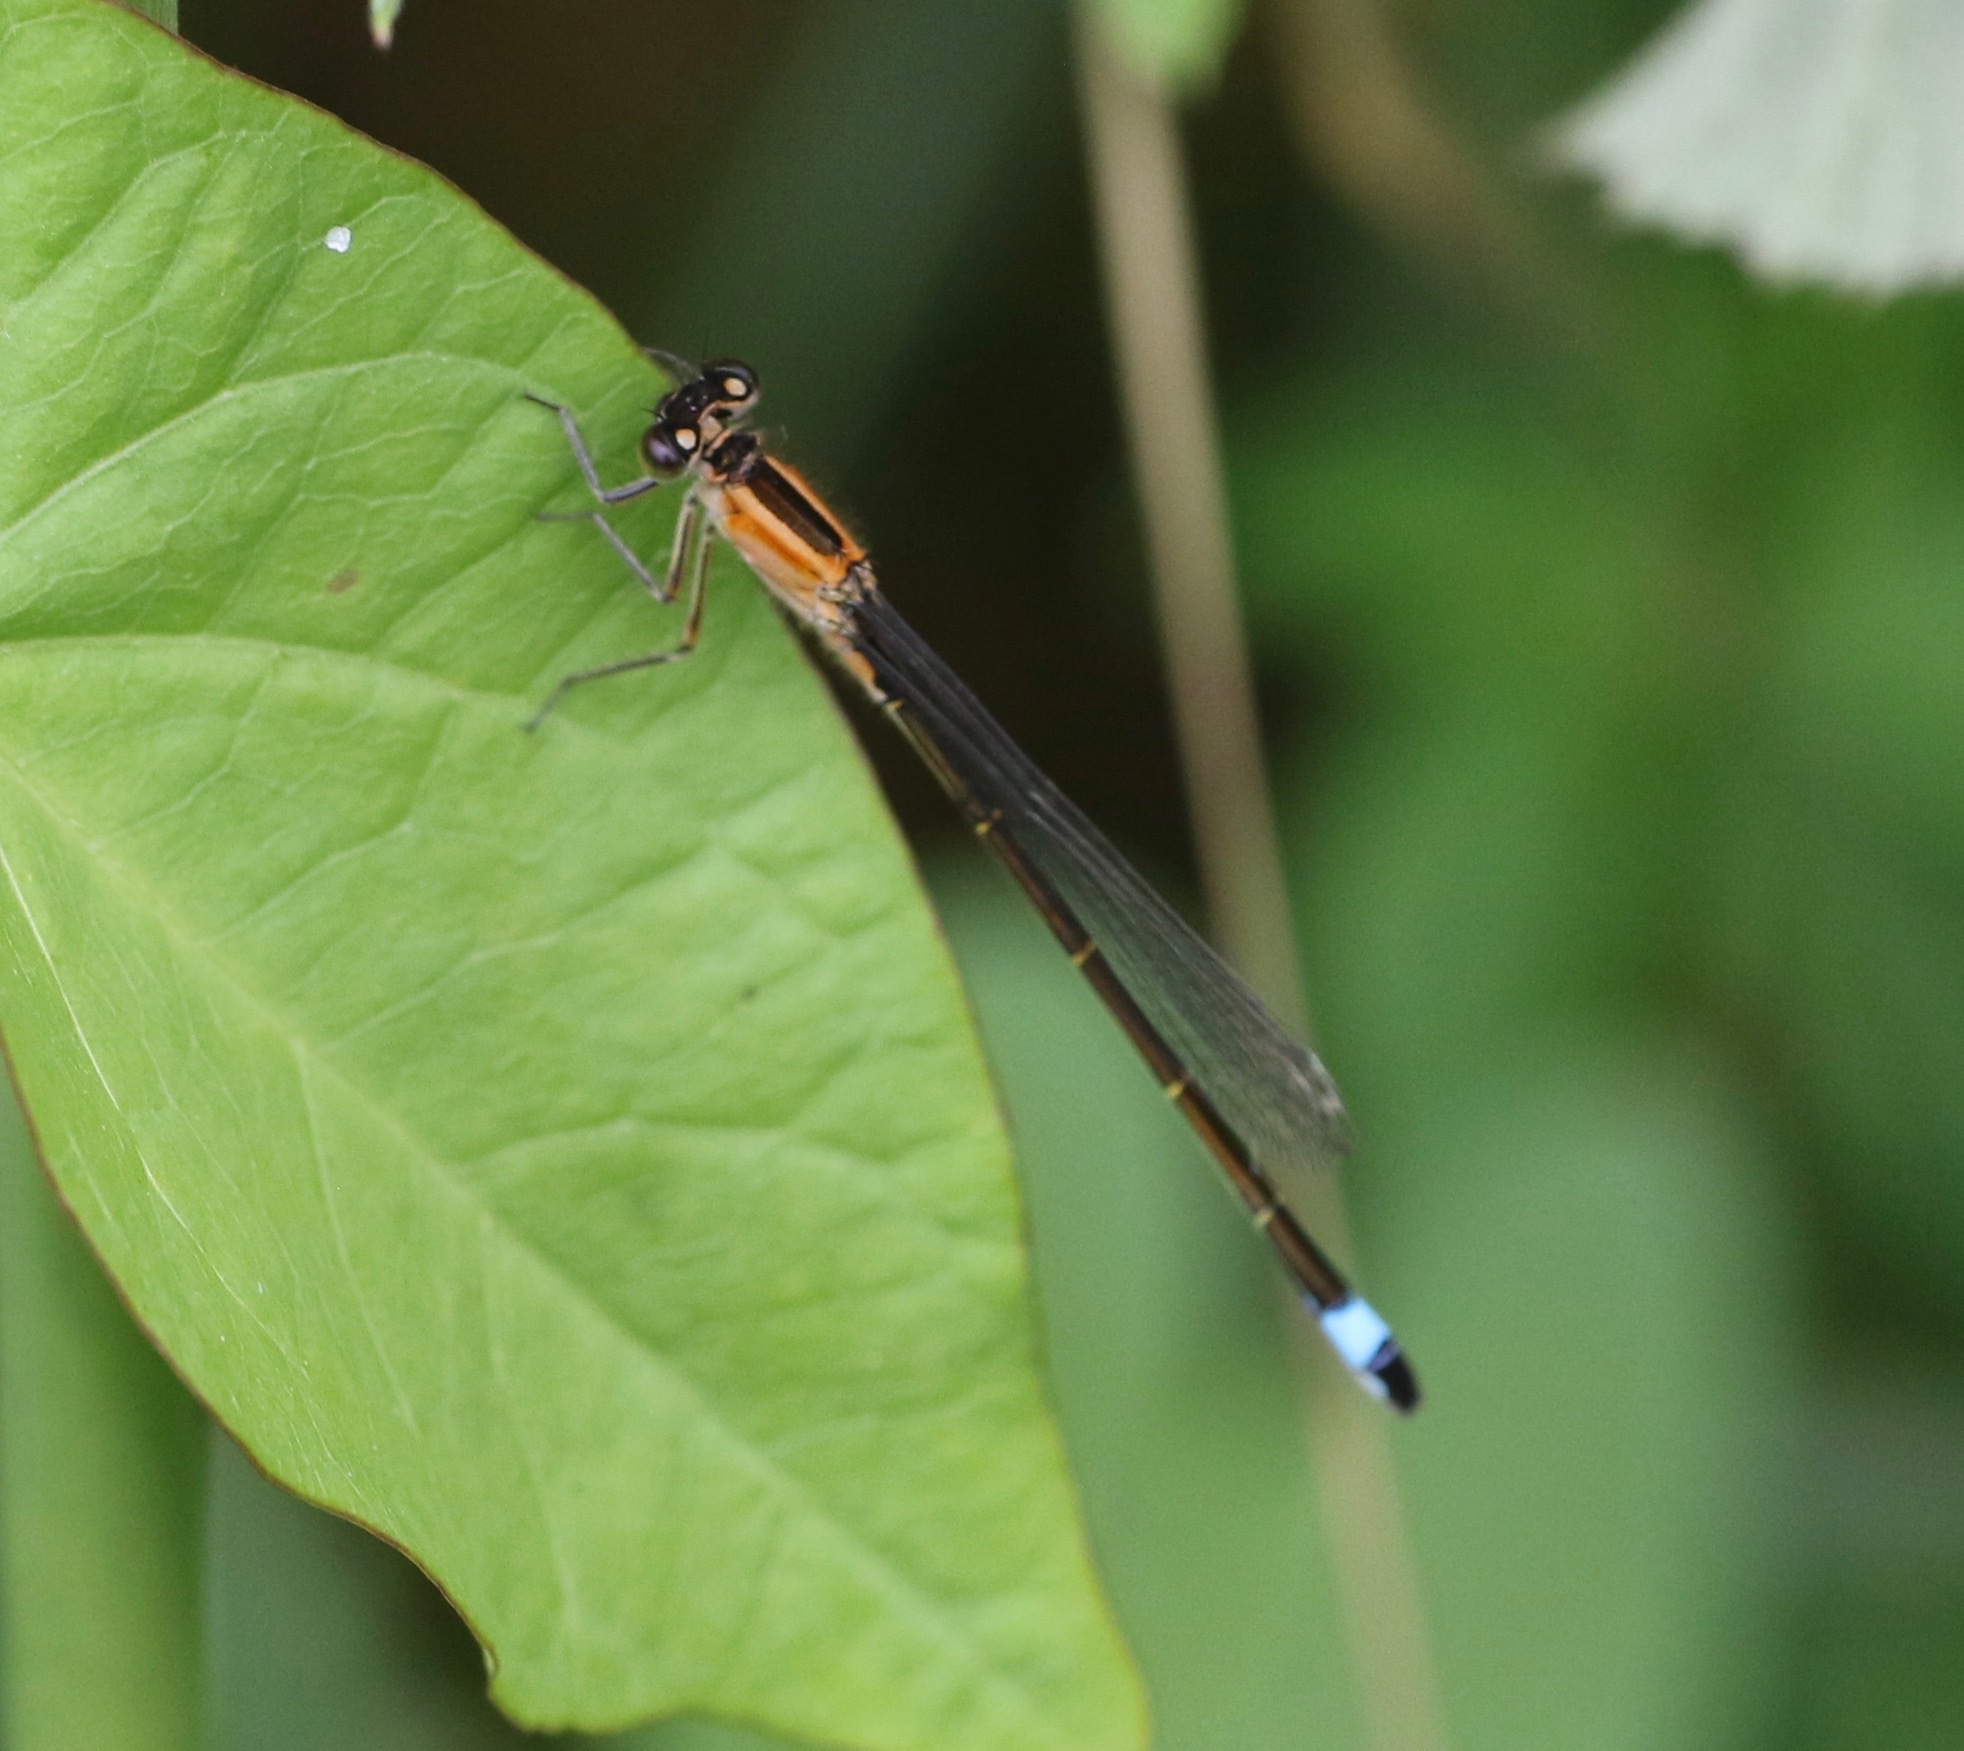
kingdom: Animalia
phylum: Arthropoda
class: Insecta
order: Odonata
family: Coenagrionidae
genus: Ischnura
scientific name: Ischnura elegans
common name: Blue-tailed damselfly
